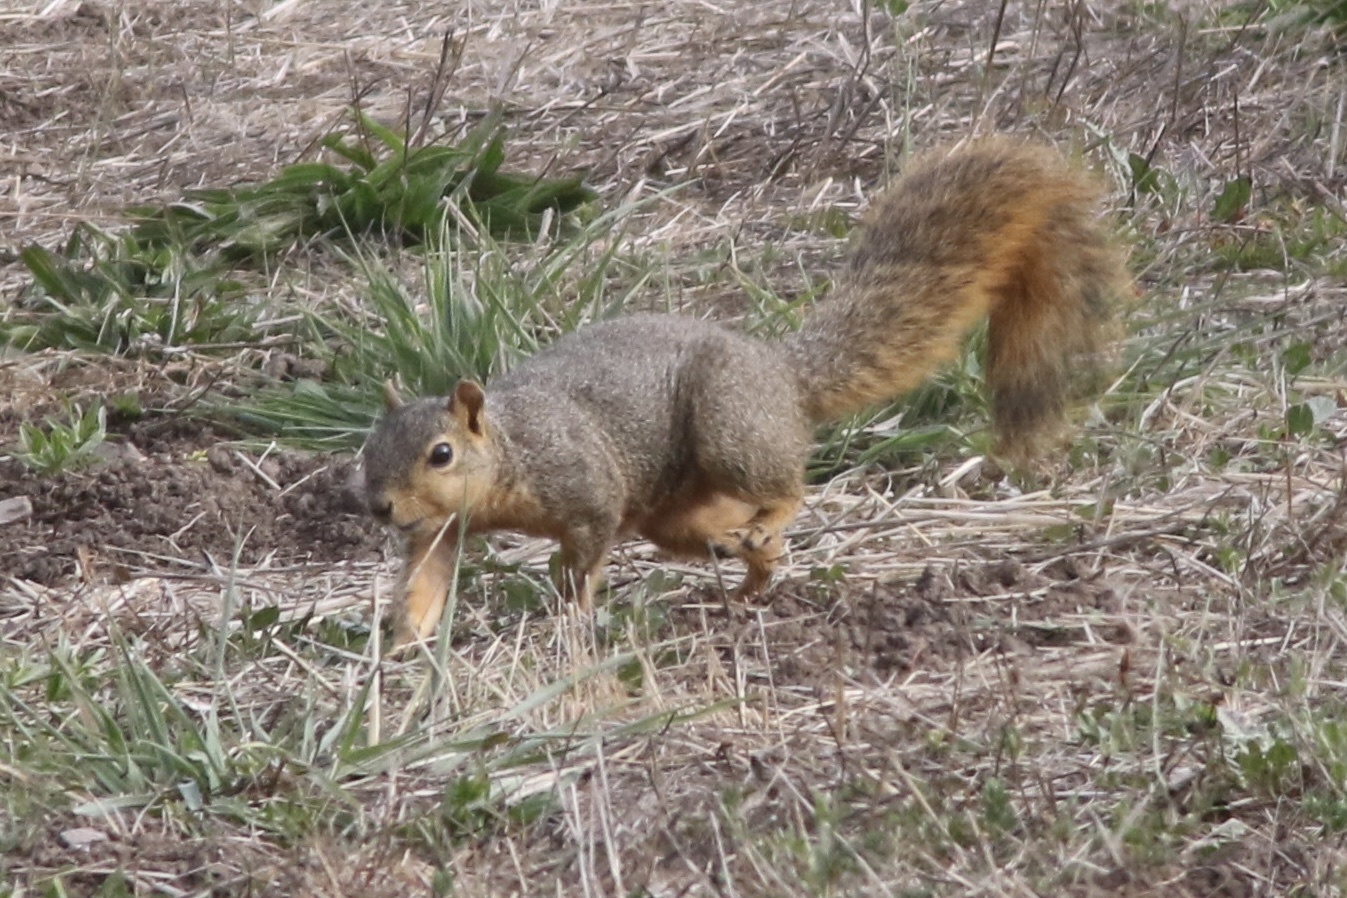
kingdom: Animalia
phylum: Chordata
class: Mammalia
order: Rodentia
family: Sciuridae
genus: Sciurus
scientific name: Sciurus niger
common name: Fox squirrel
